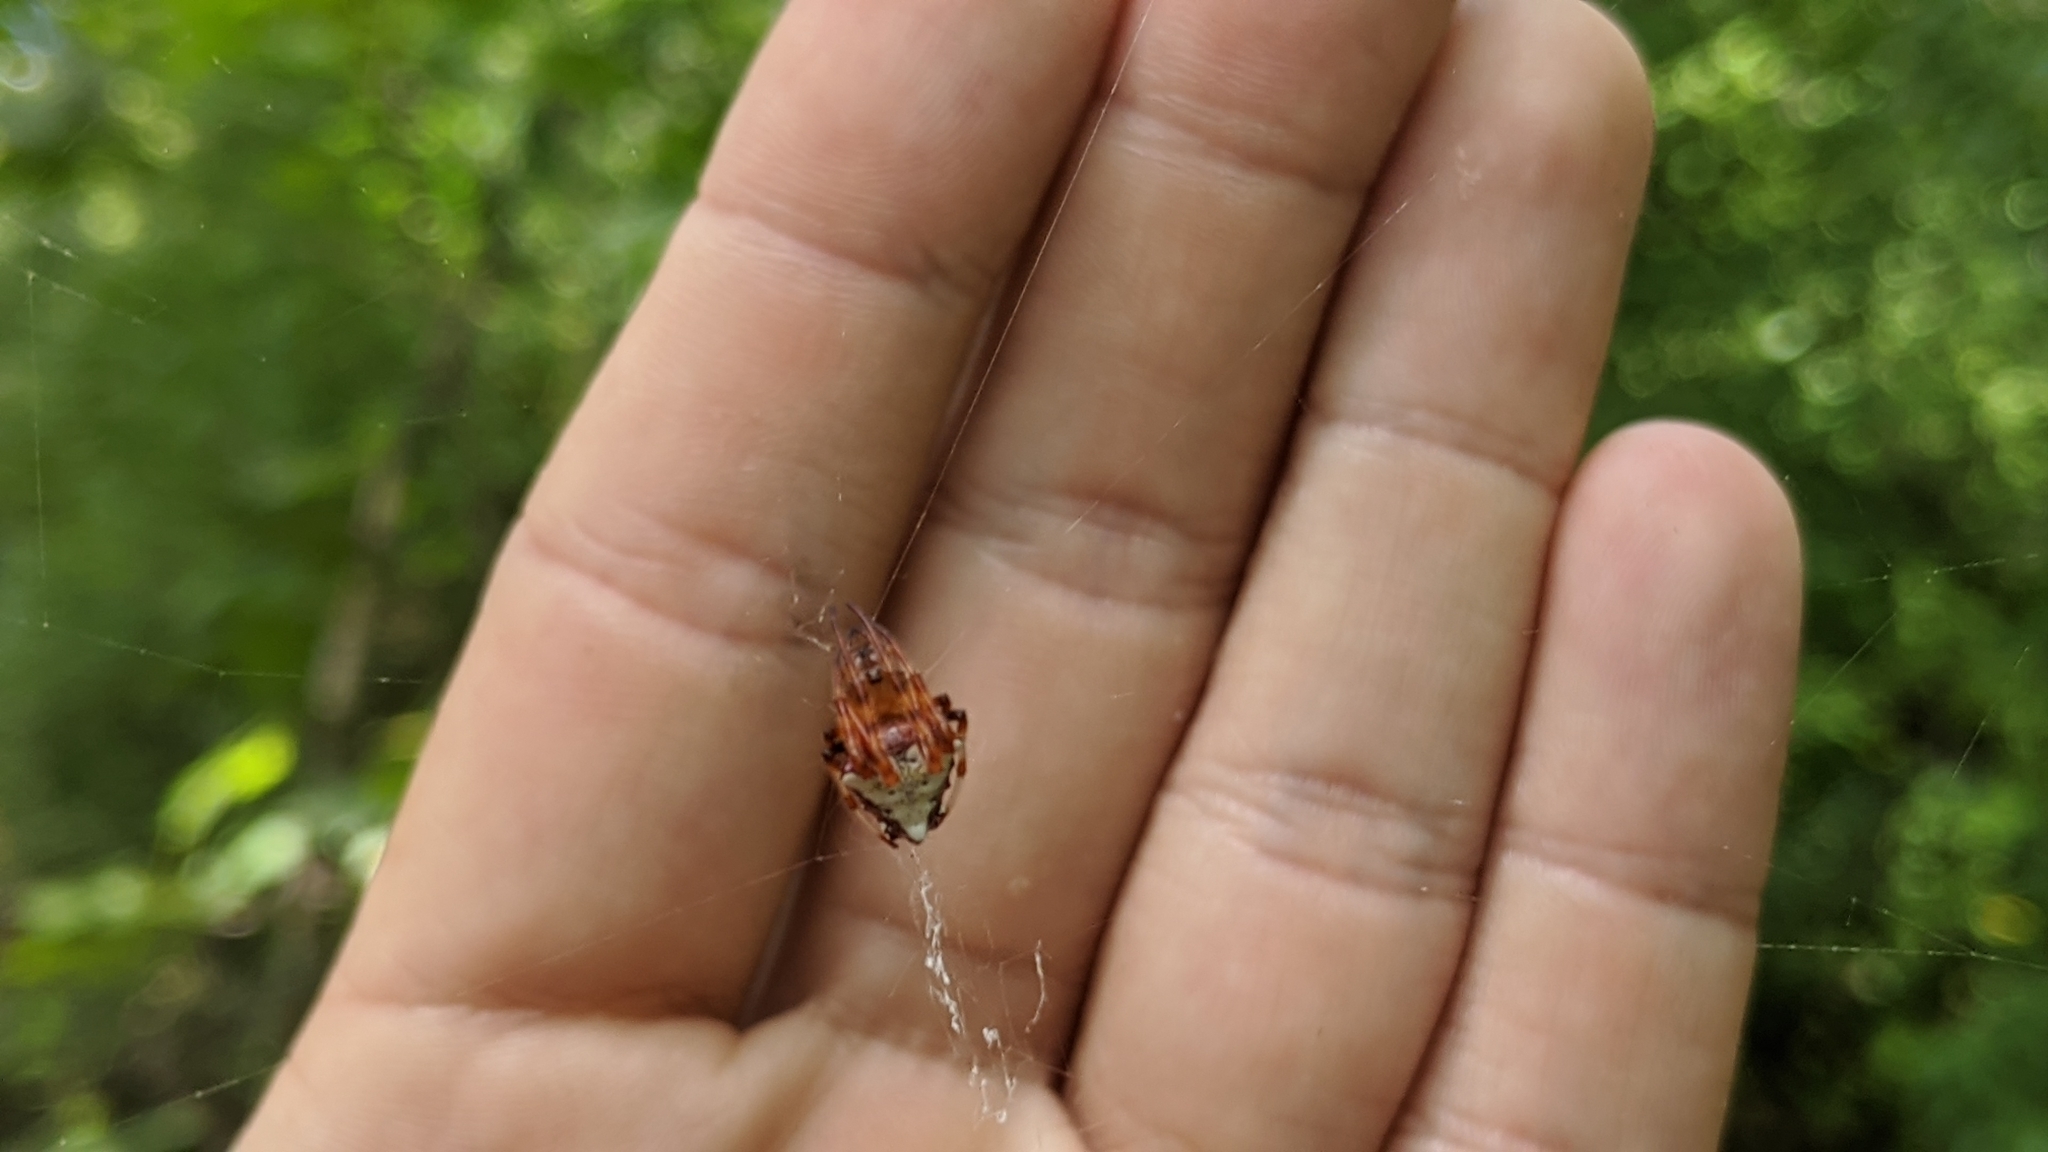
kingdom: Animalia
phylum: Arthropoda
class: Arachnida
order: Araneae
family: Araneidae
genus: Verrucosa
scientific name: Verrucosa arenata
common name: Orb weavers
